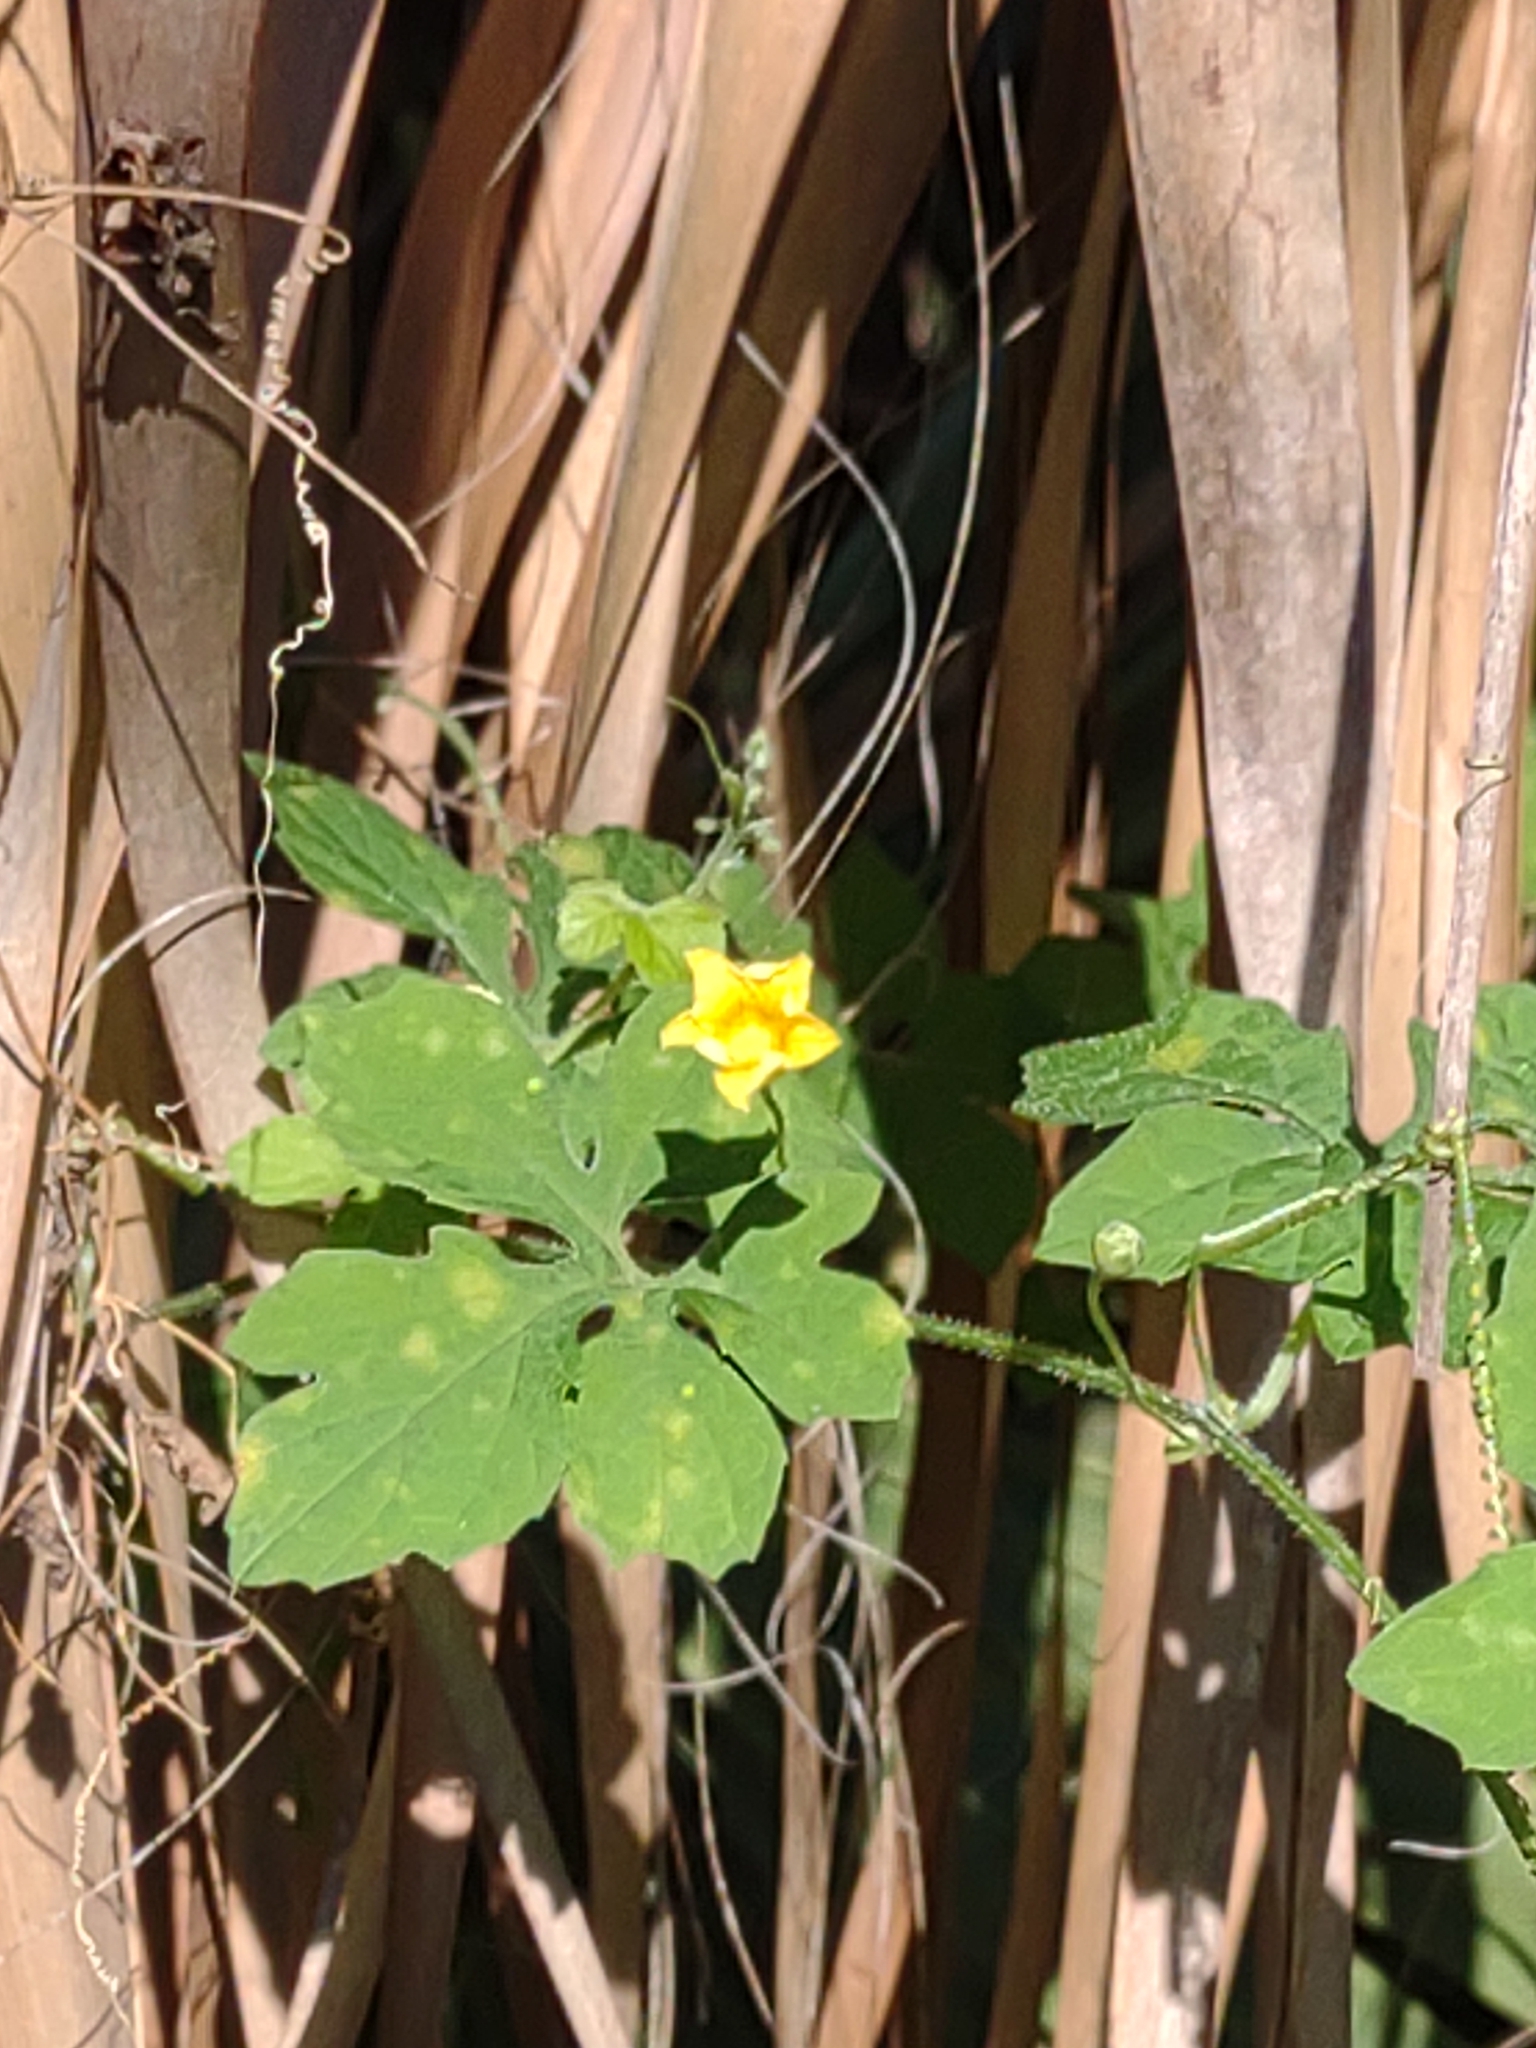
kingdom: Plantae
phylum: Tracheophyta
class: Magnoliopsida
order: Cucurbitales
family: Cucurbitaceae
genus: Momordica
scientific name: Momordica charantia
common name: Balsampear
